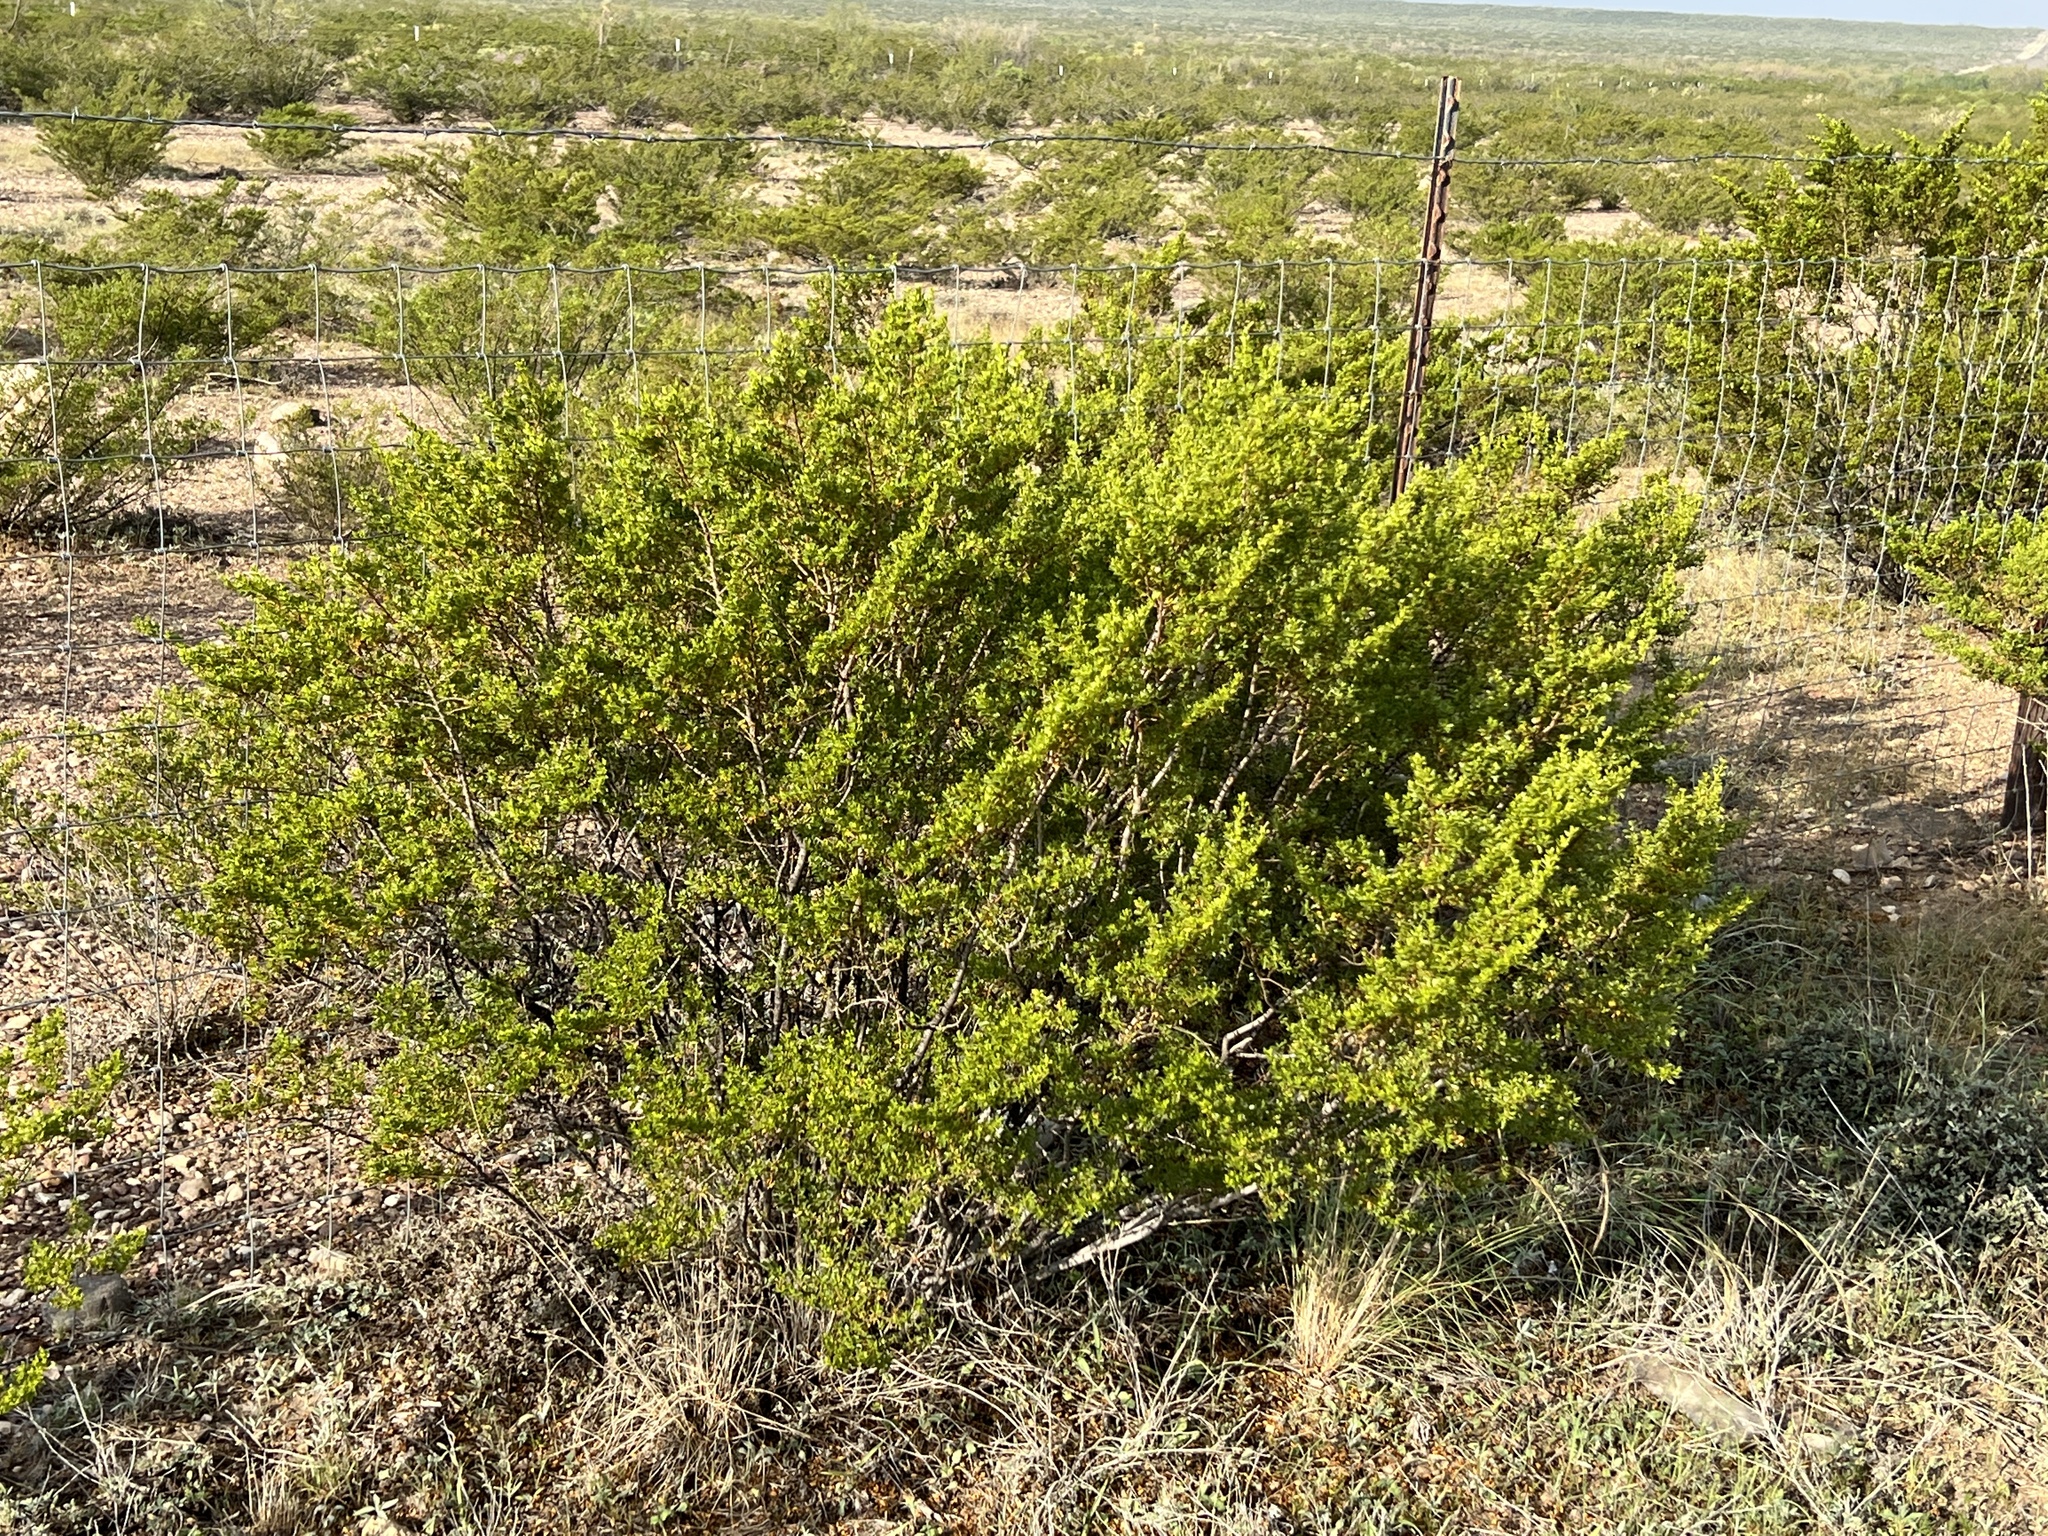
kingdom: Plantae
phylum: Tracheophyta
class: Magnoliopsida
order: Zygophyllales
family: Zygophyllaceae
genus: Larrea
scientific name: Larrea tridentata
